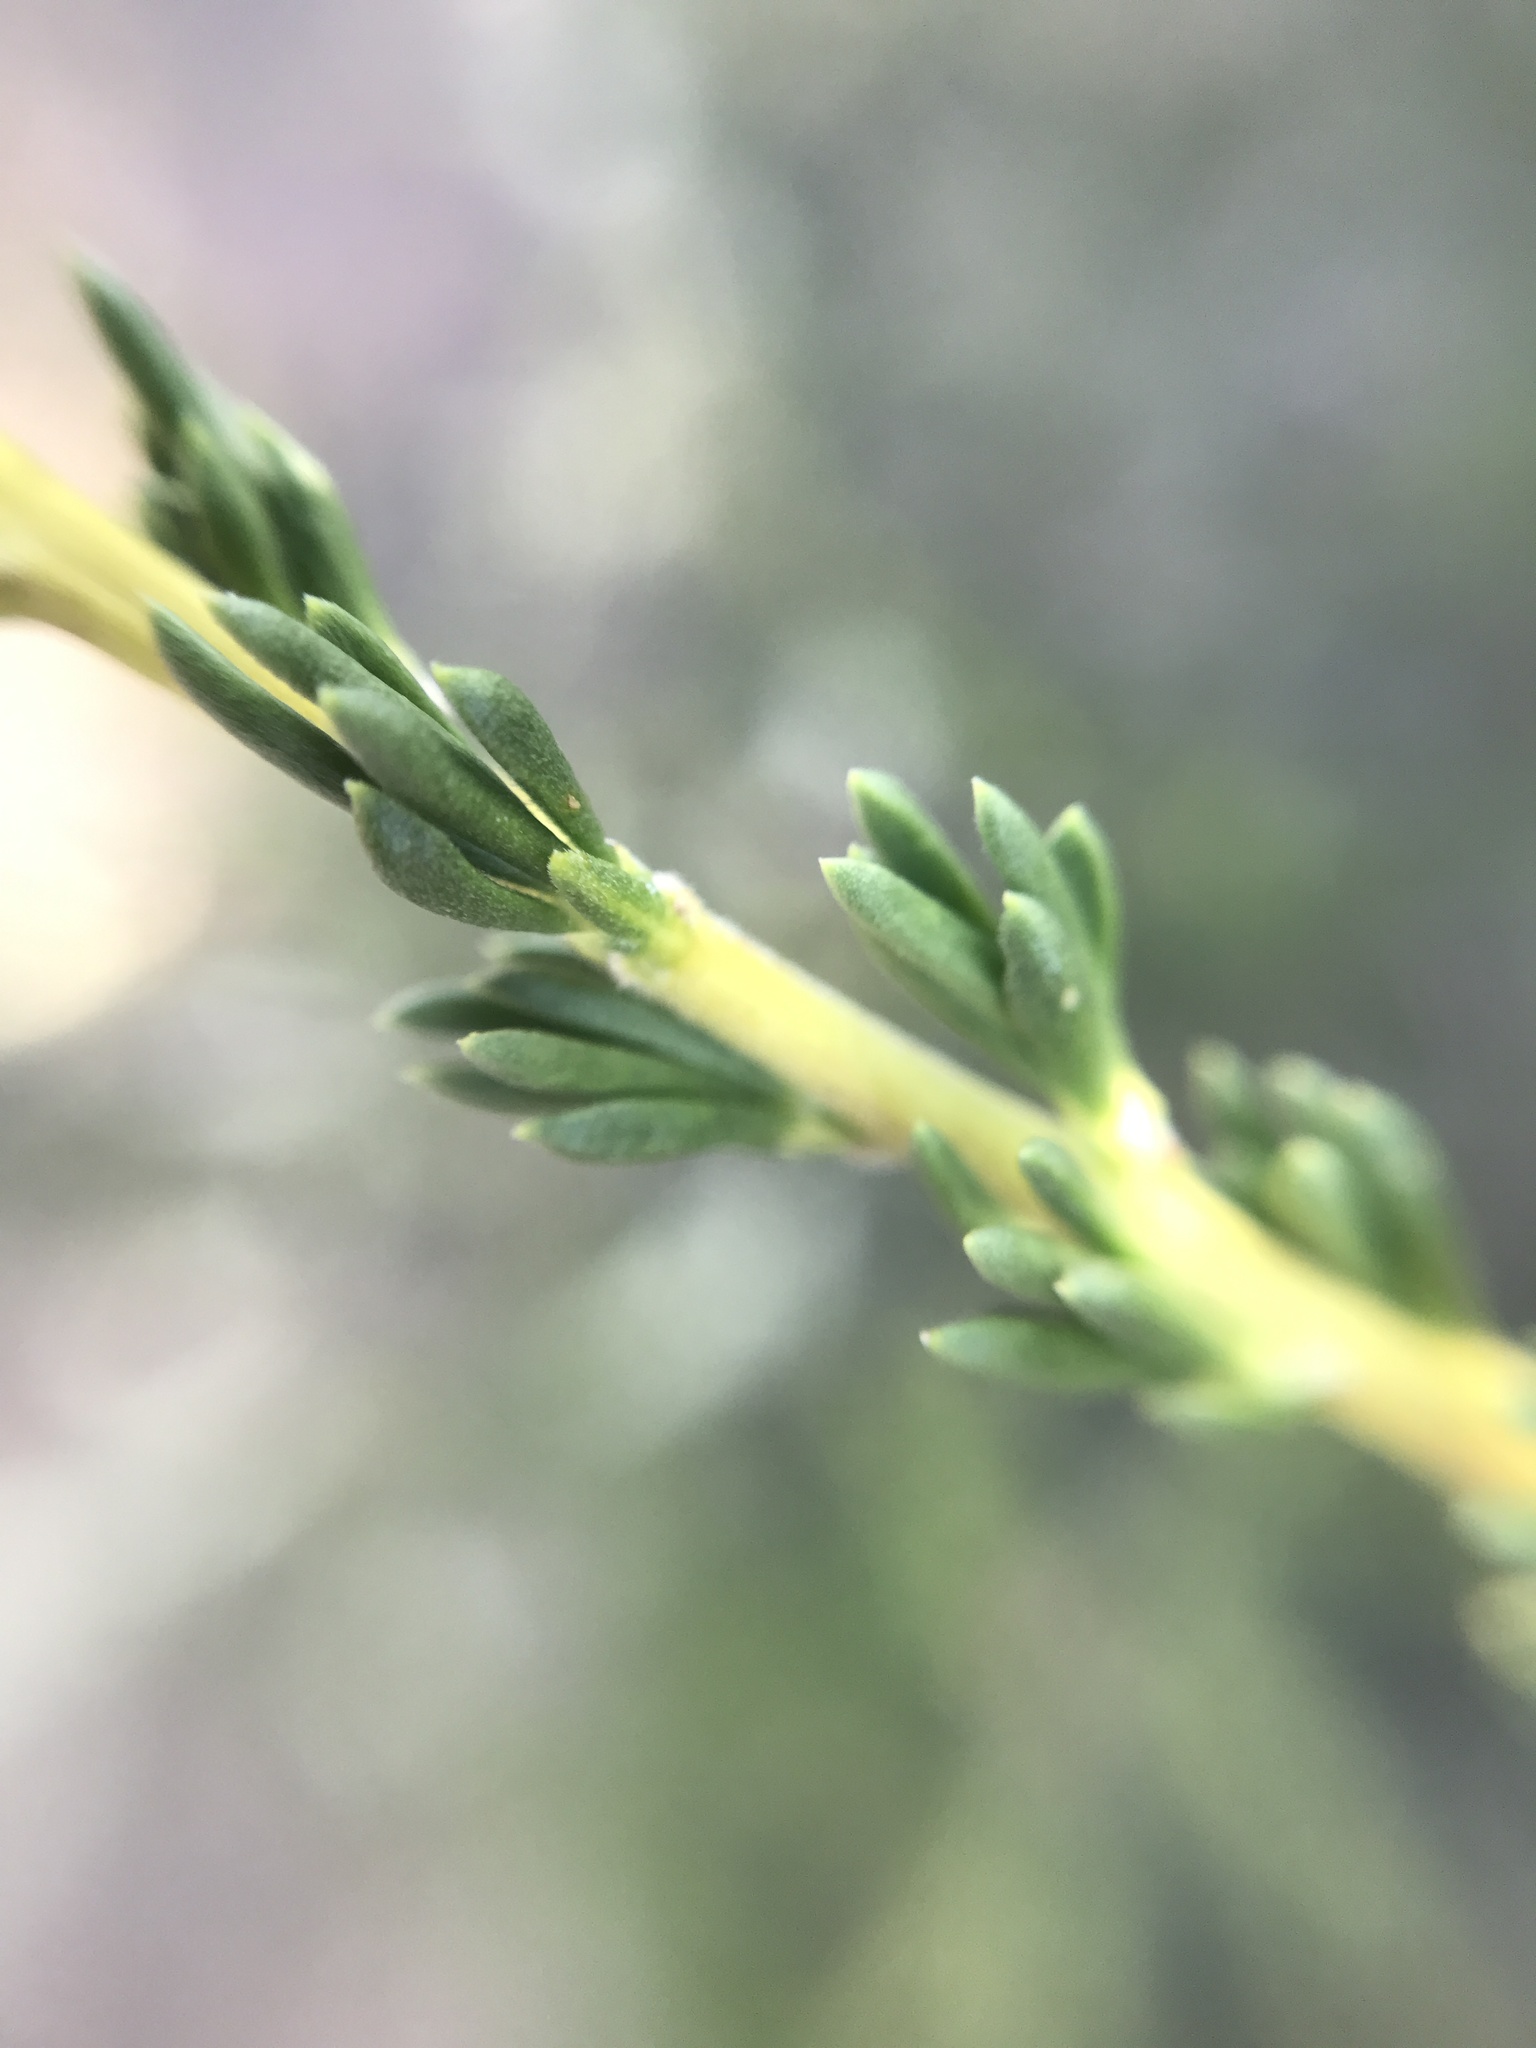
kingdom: Plantae
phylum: Tracheophyta
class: Magnoliopsida
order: Rosales
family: Rosaceae
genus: Adenostoma
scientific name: Adenostoma fasciculatum
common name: Chamise
